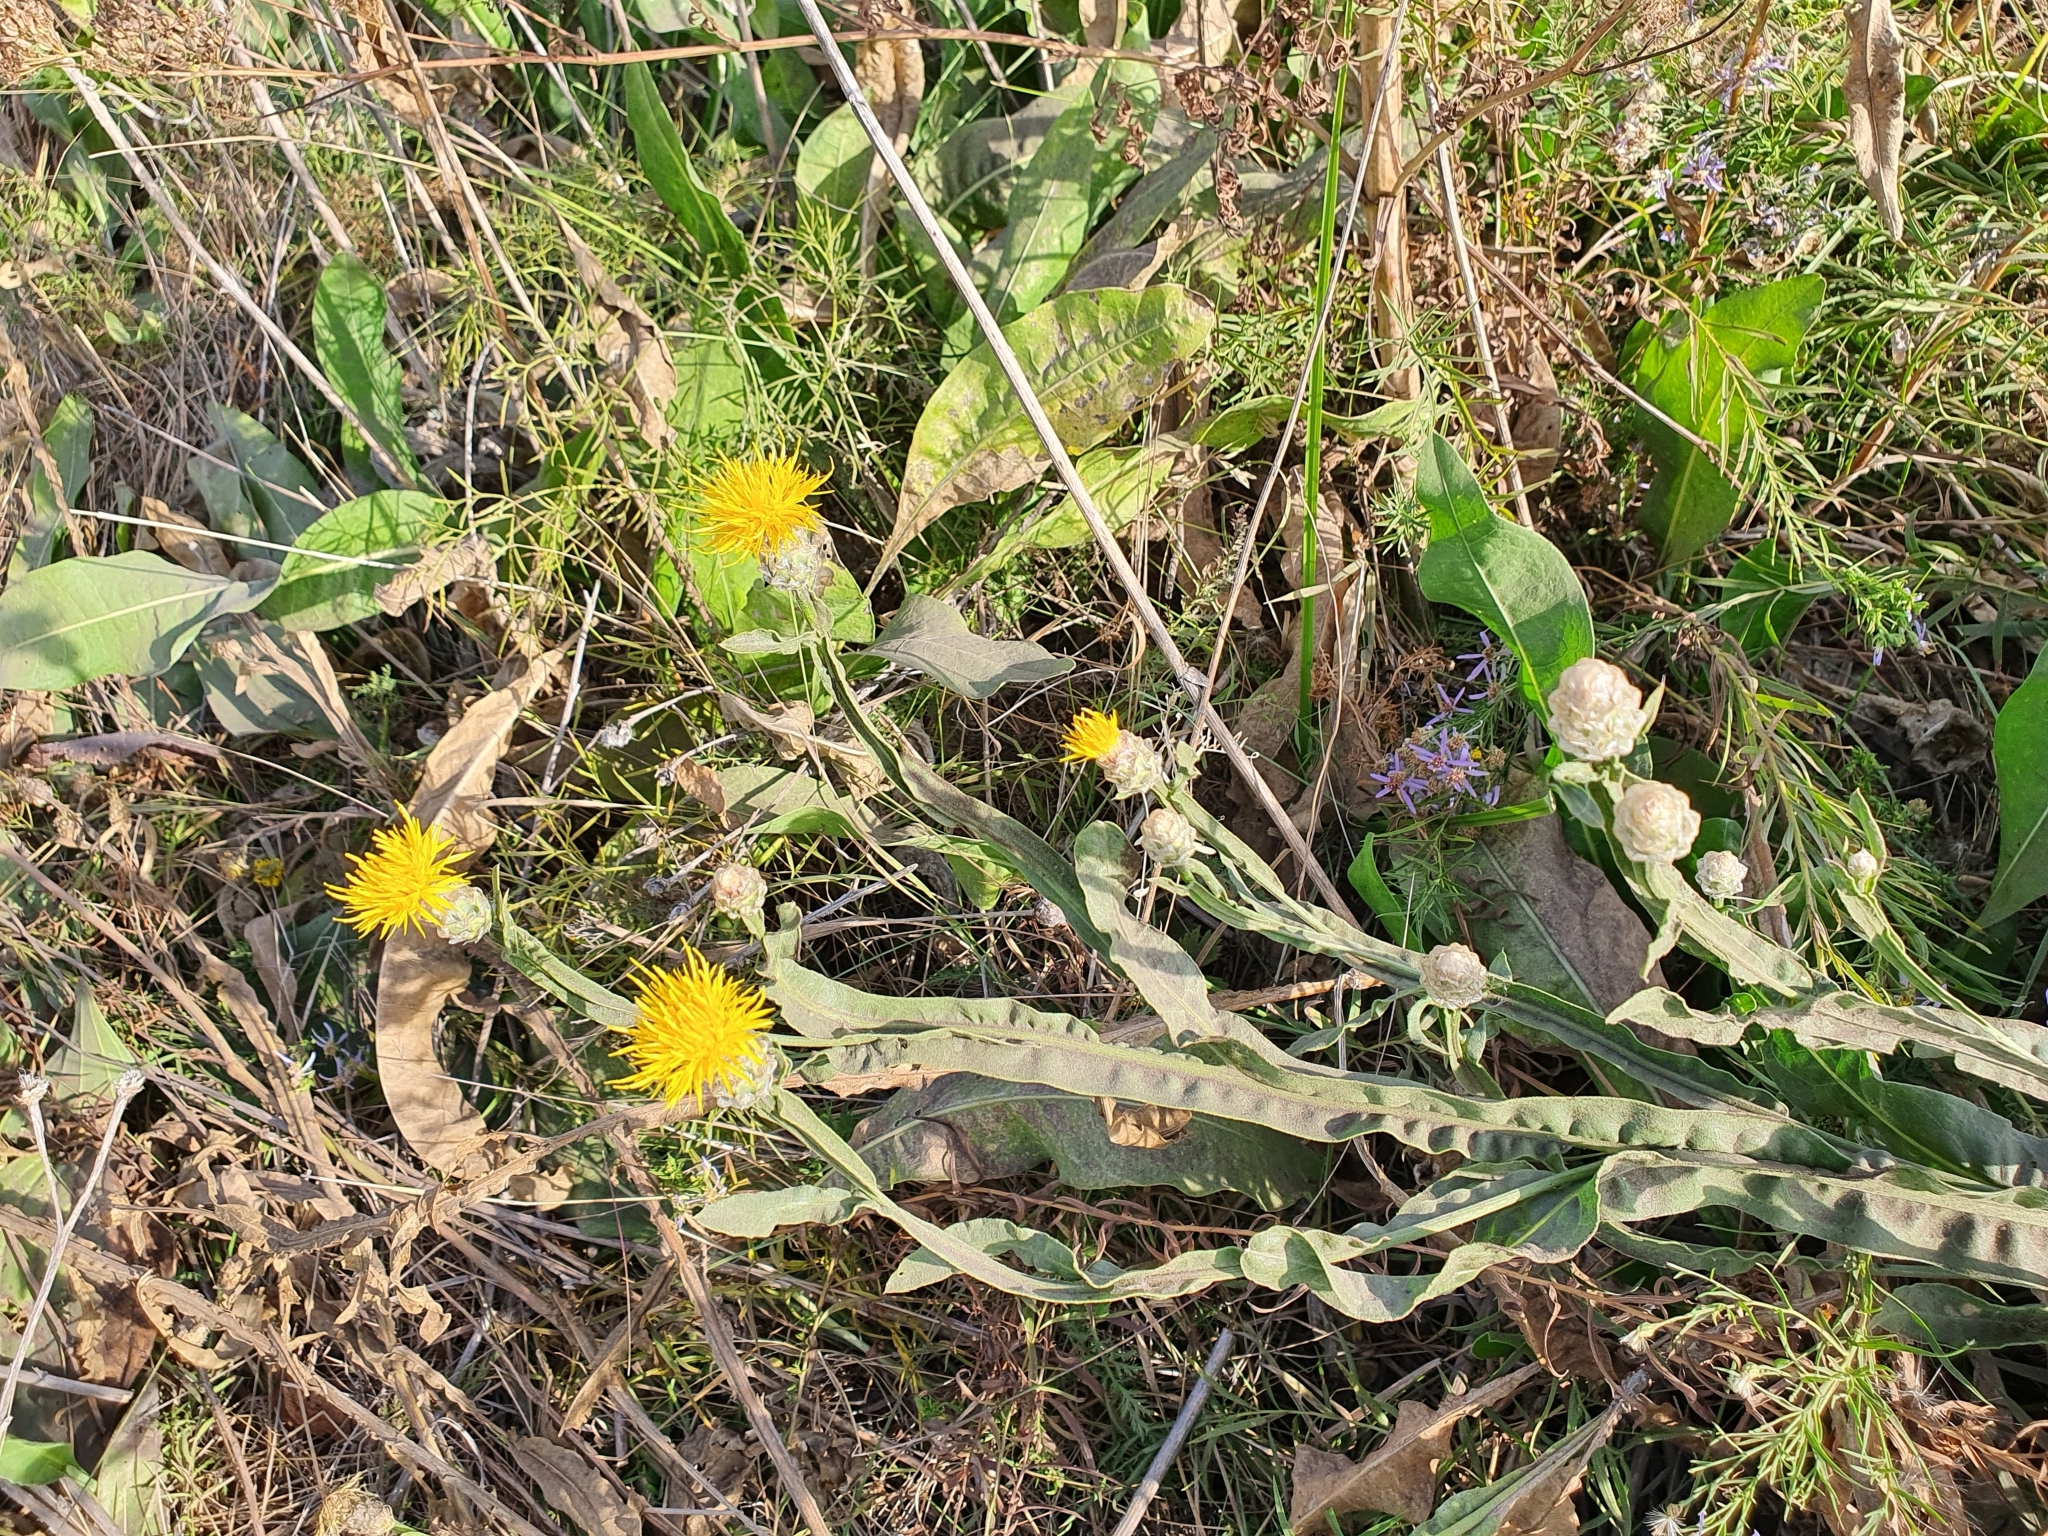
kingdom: Plantae
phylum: Tracheophyta
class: Magnoliopsida
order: Asterales
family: Asteraceae
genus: Centaurea
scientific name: Centaurea glastifolia
